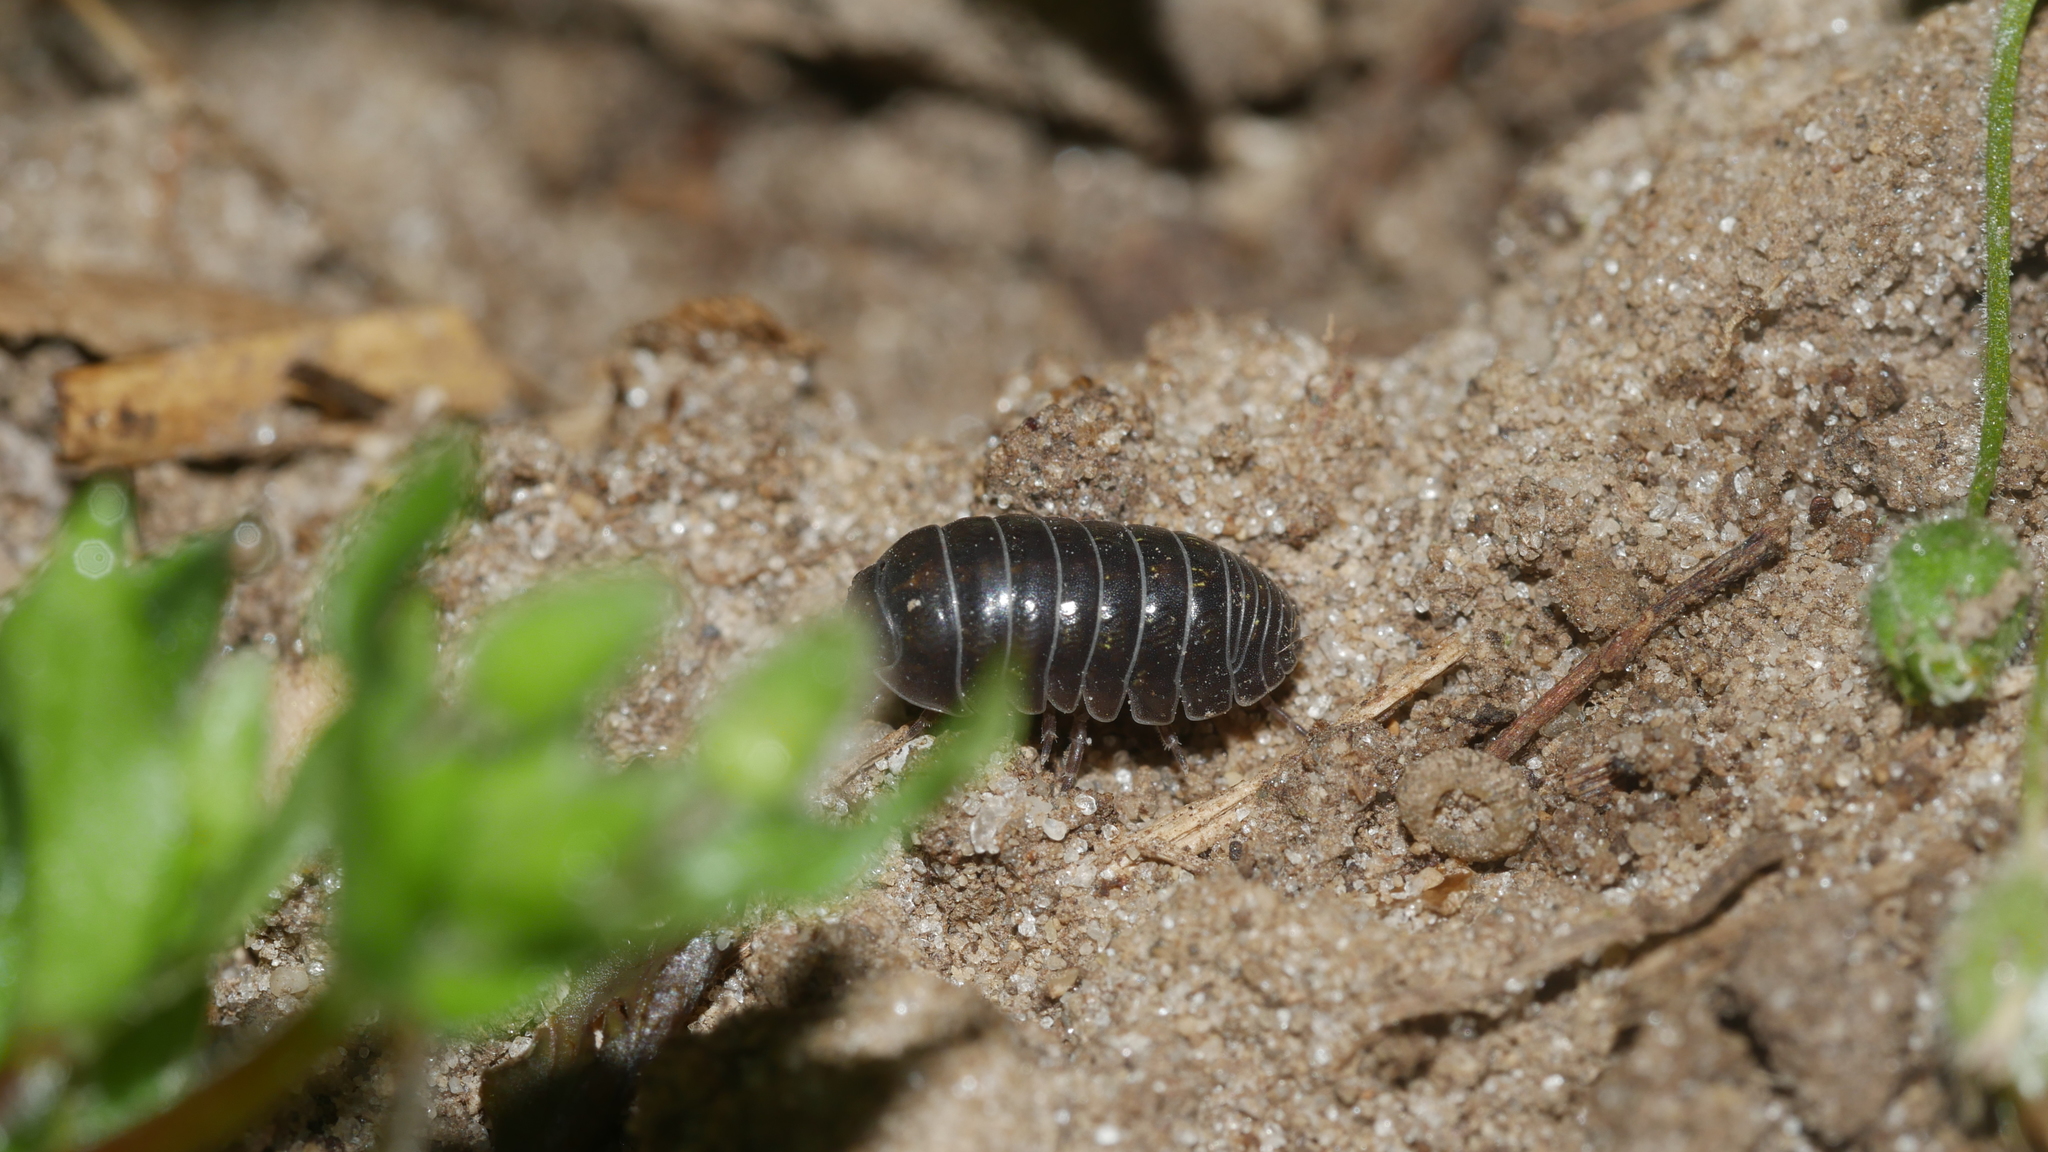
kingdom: Animalia
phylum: Arthropoda
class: Malacostraca
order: Isopoda
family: Armadillidiidae
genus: Armadillidium
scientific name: Armadillidium vulgare
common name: Common pill woodlouse
